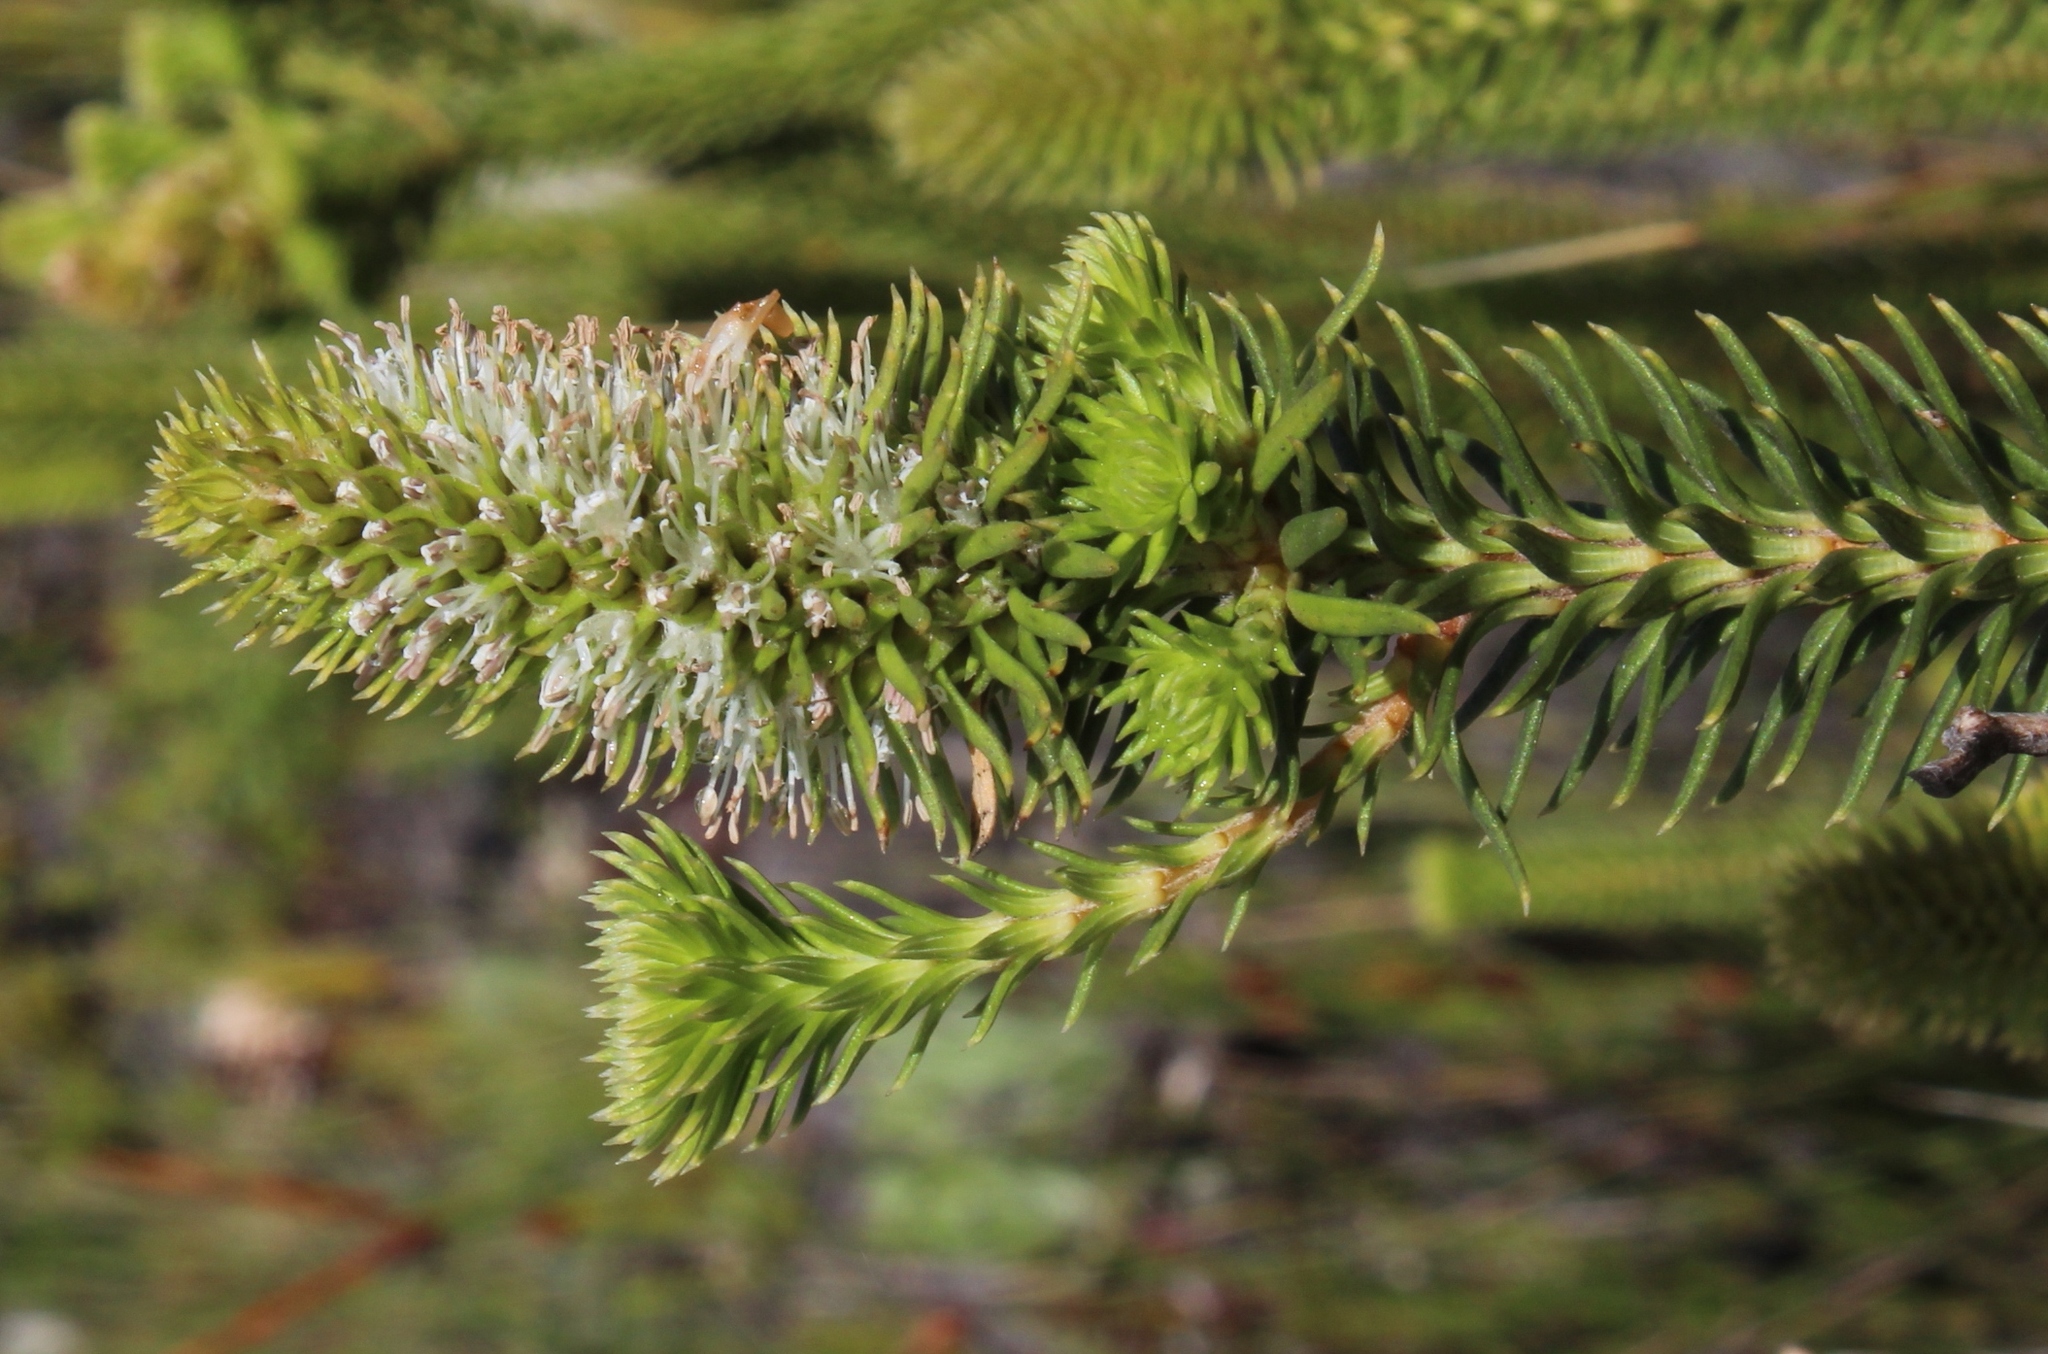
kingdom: Plantae
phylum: Tracheophyta
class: Magnoliopsida
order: Lamiales
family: Stilbaceae
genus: Stilbe
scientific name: Stilbe vestita
